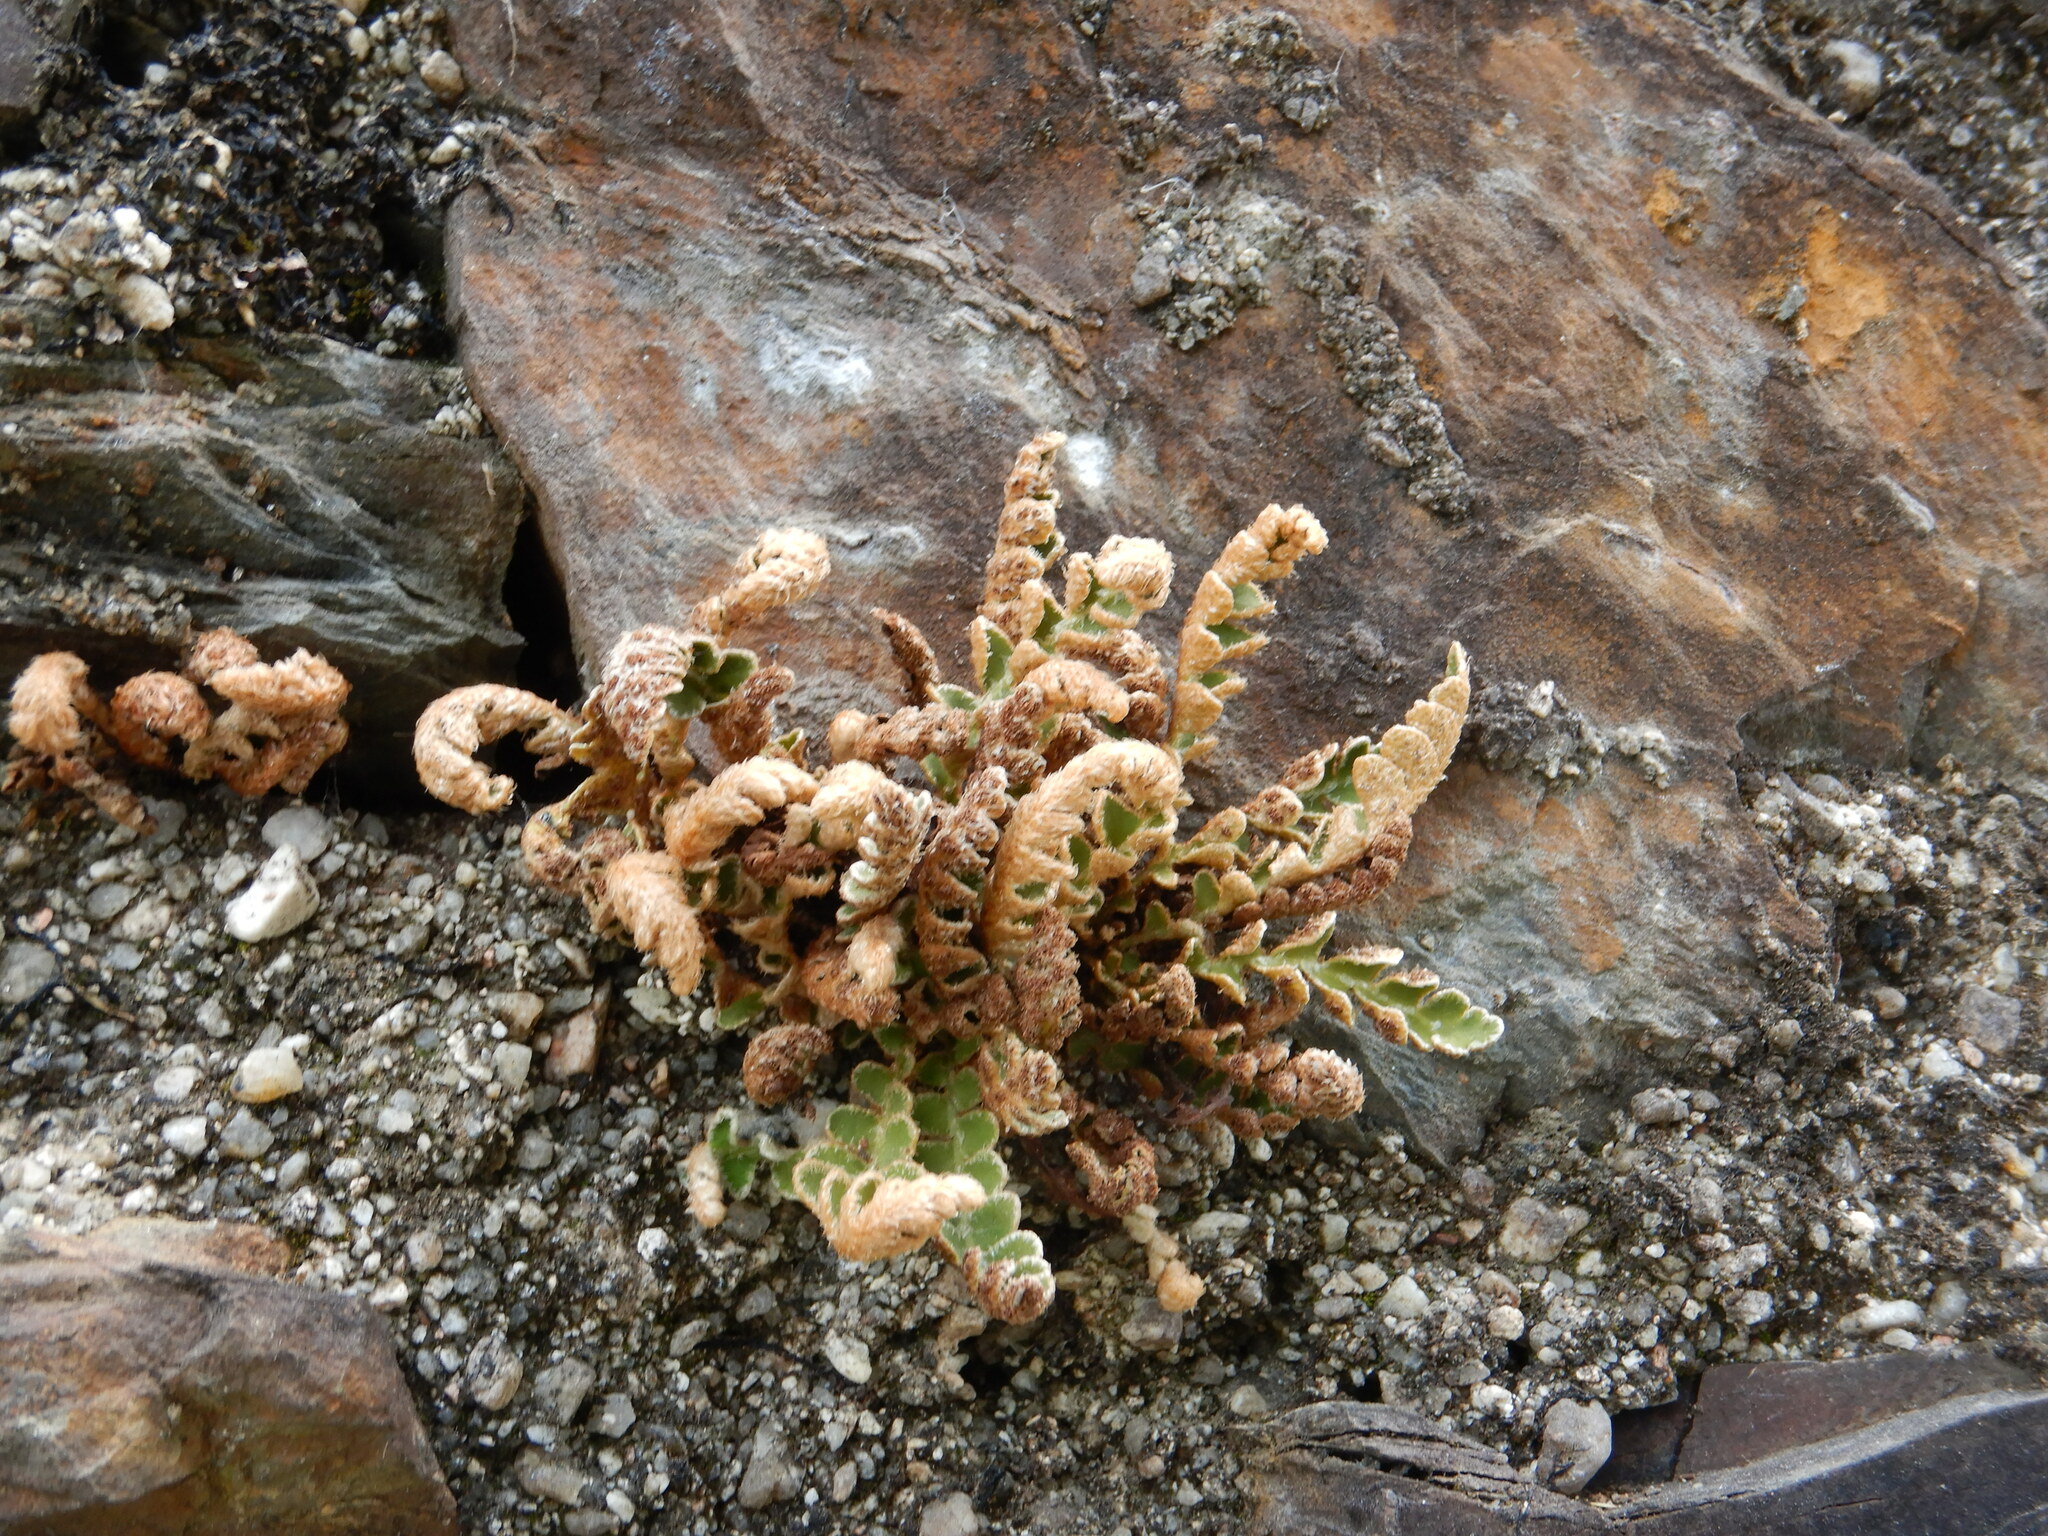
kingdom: Plantae
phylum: Tracheophyta
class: Polypodiopsida
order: Polypodiales
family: Aspleniaceae
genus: Asplenium
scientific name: Asplenium ceterach
